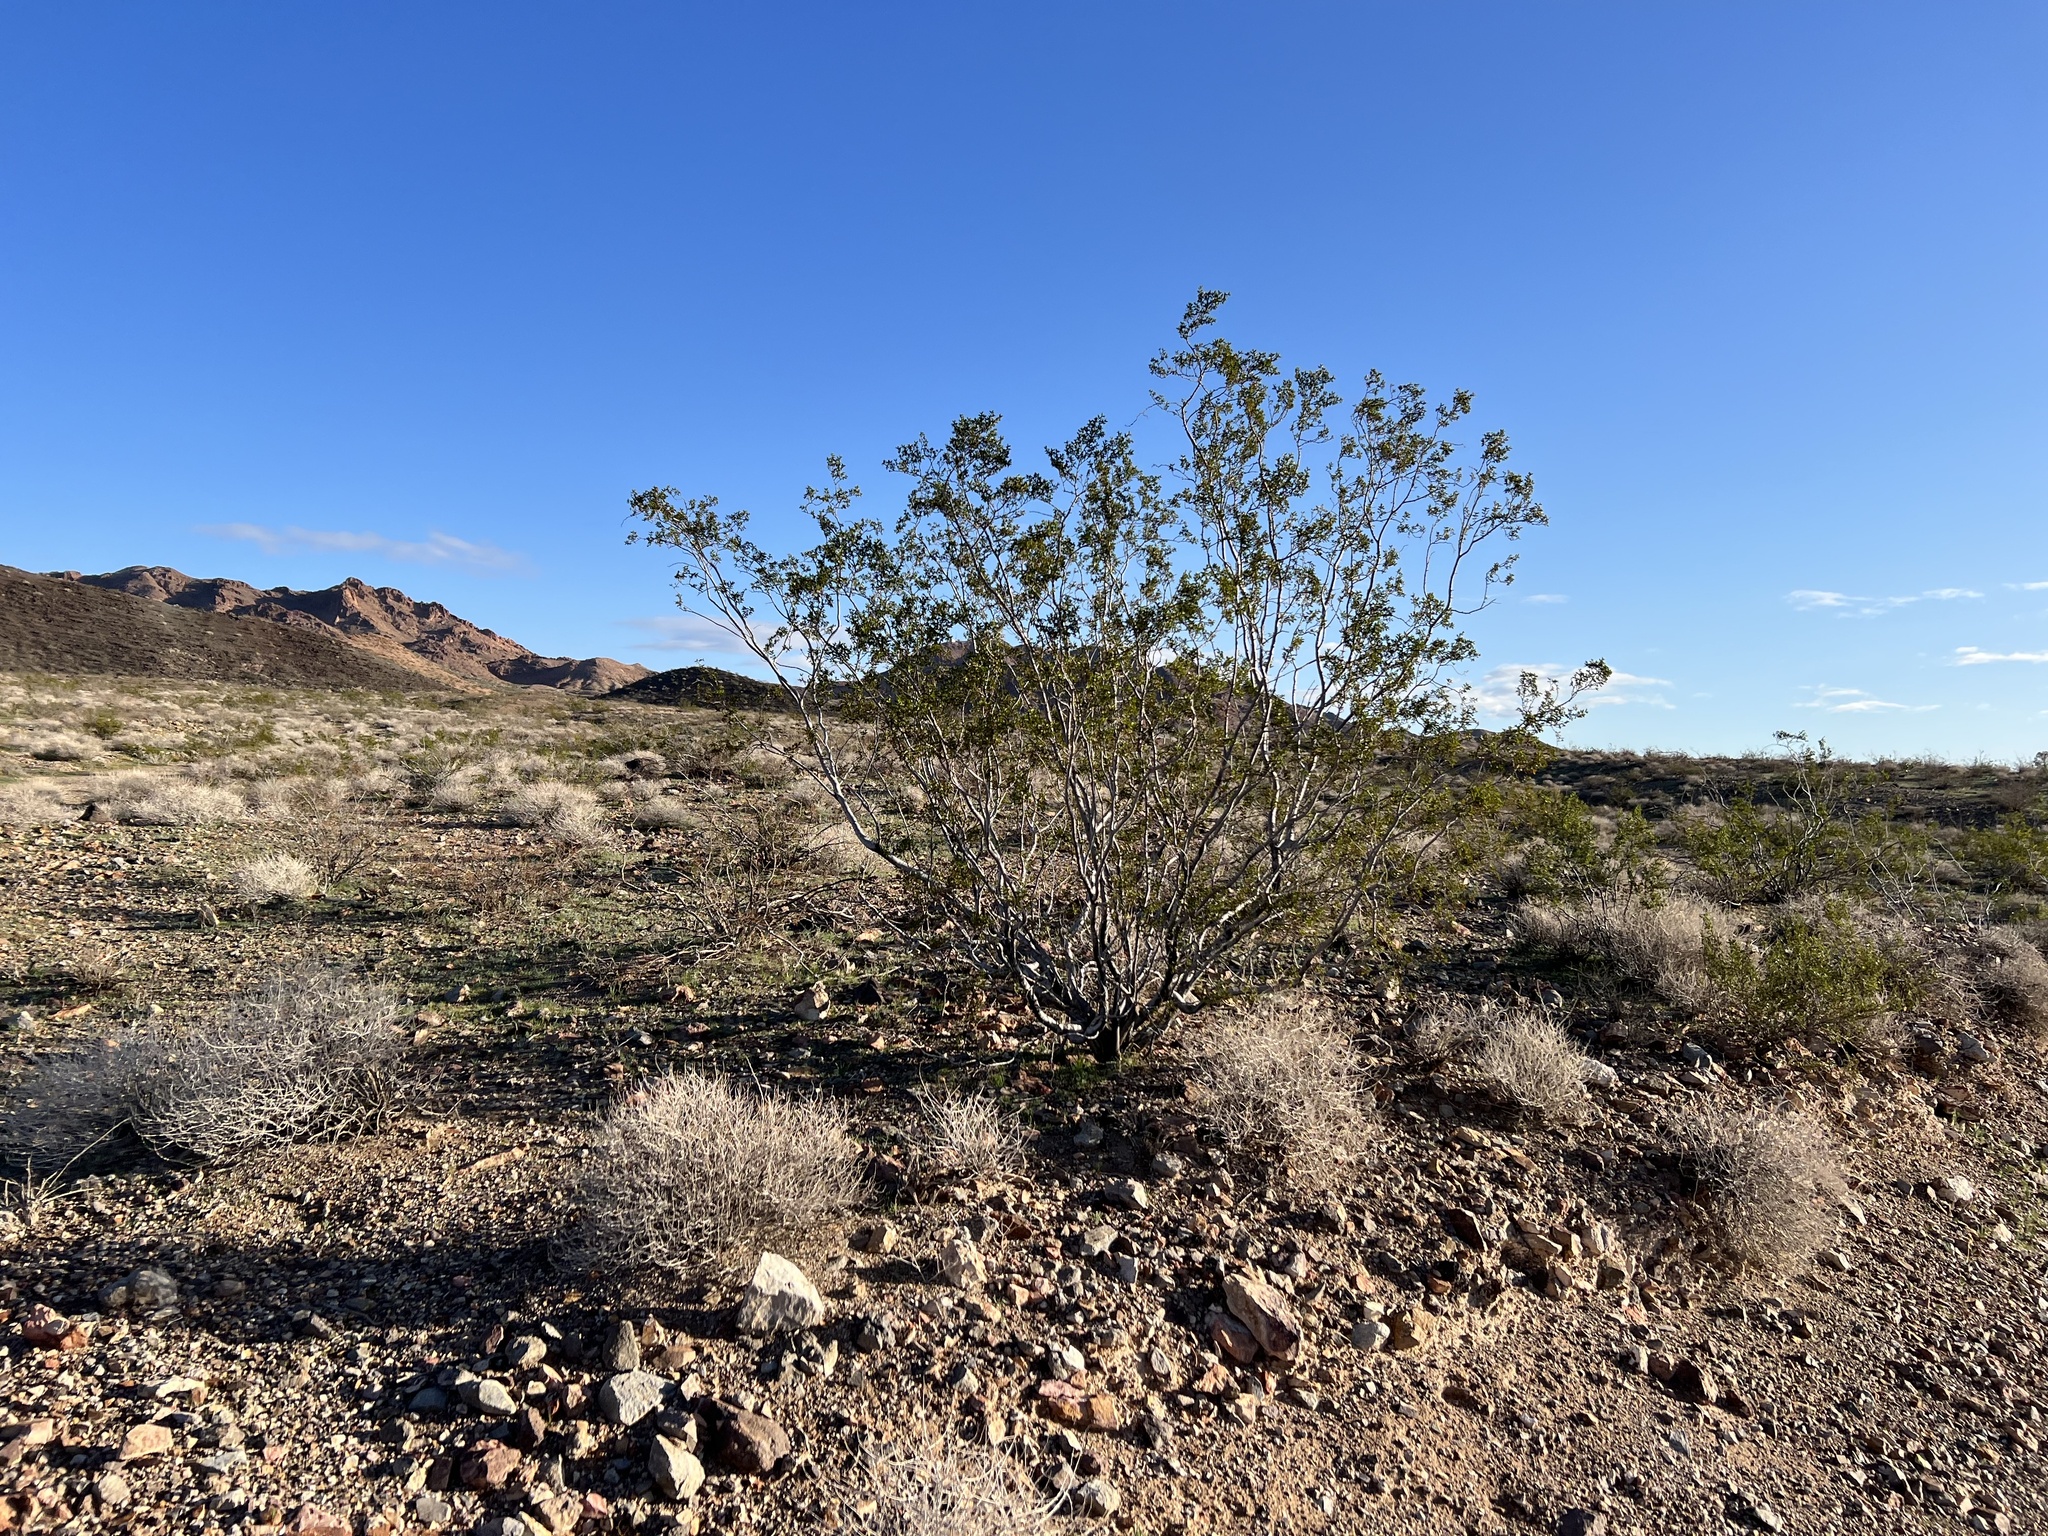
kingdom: Plantae
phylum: Tracheophyta
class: Magnoliopsida
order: Zygophyllales
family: Zygophyllaceae
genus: Larrea
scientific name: Larrea tridentata
